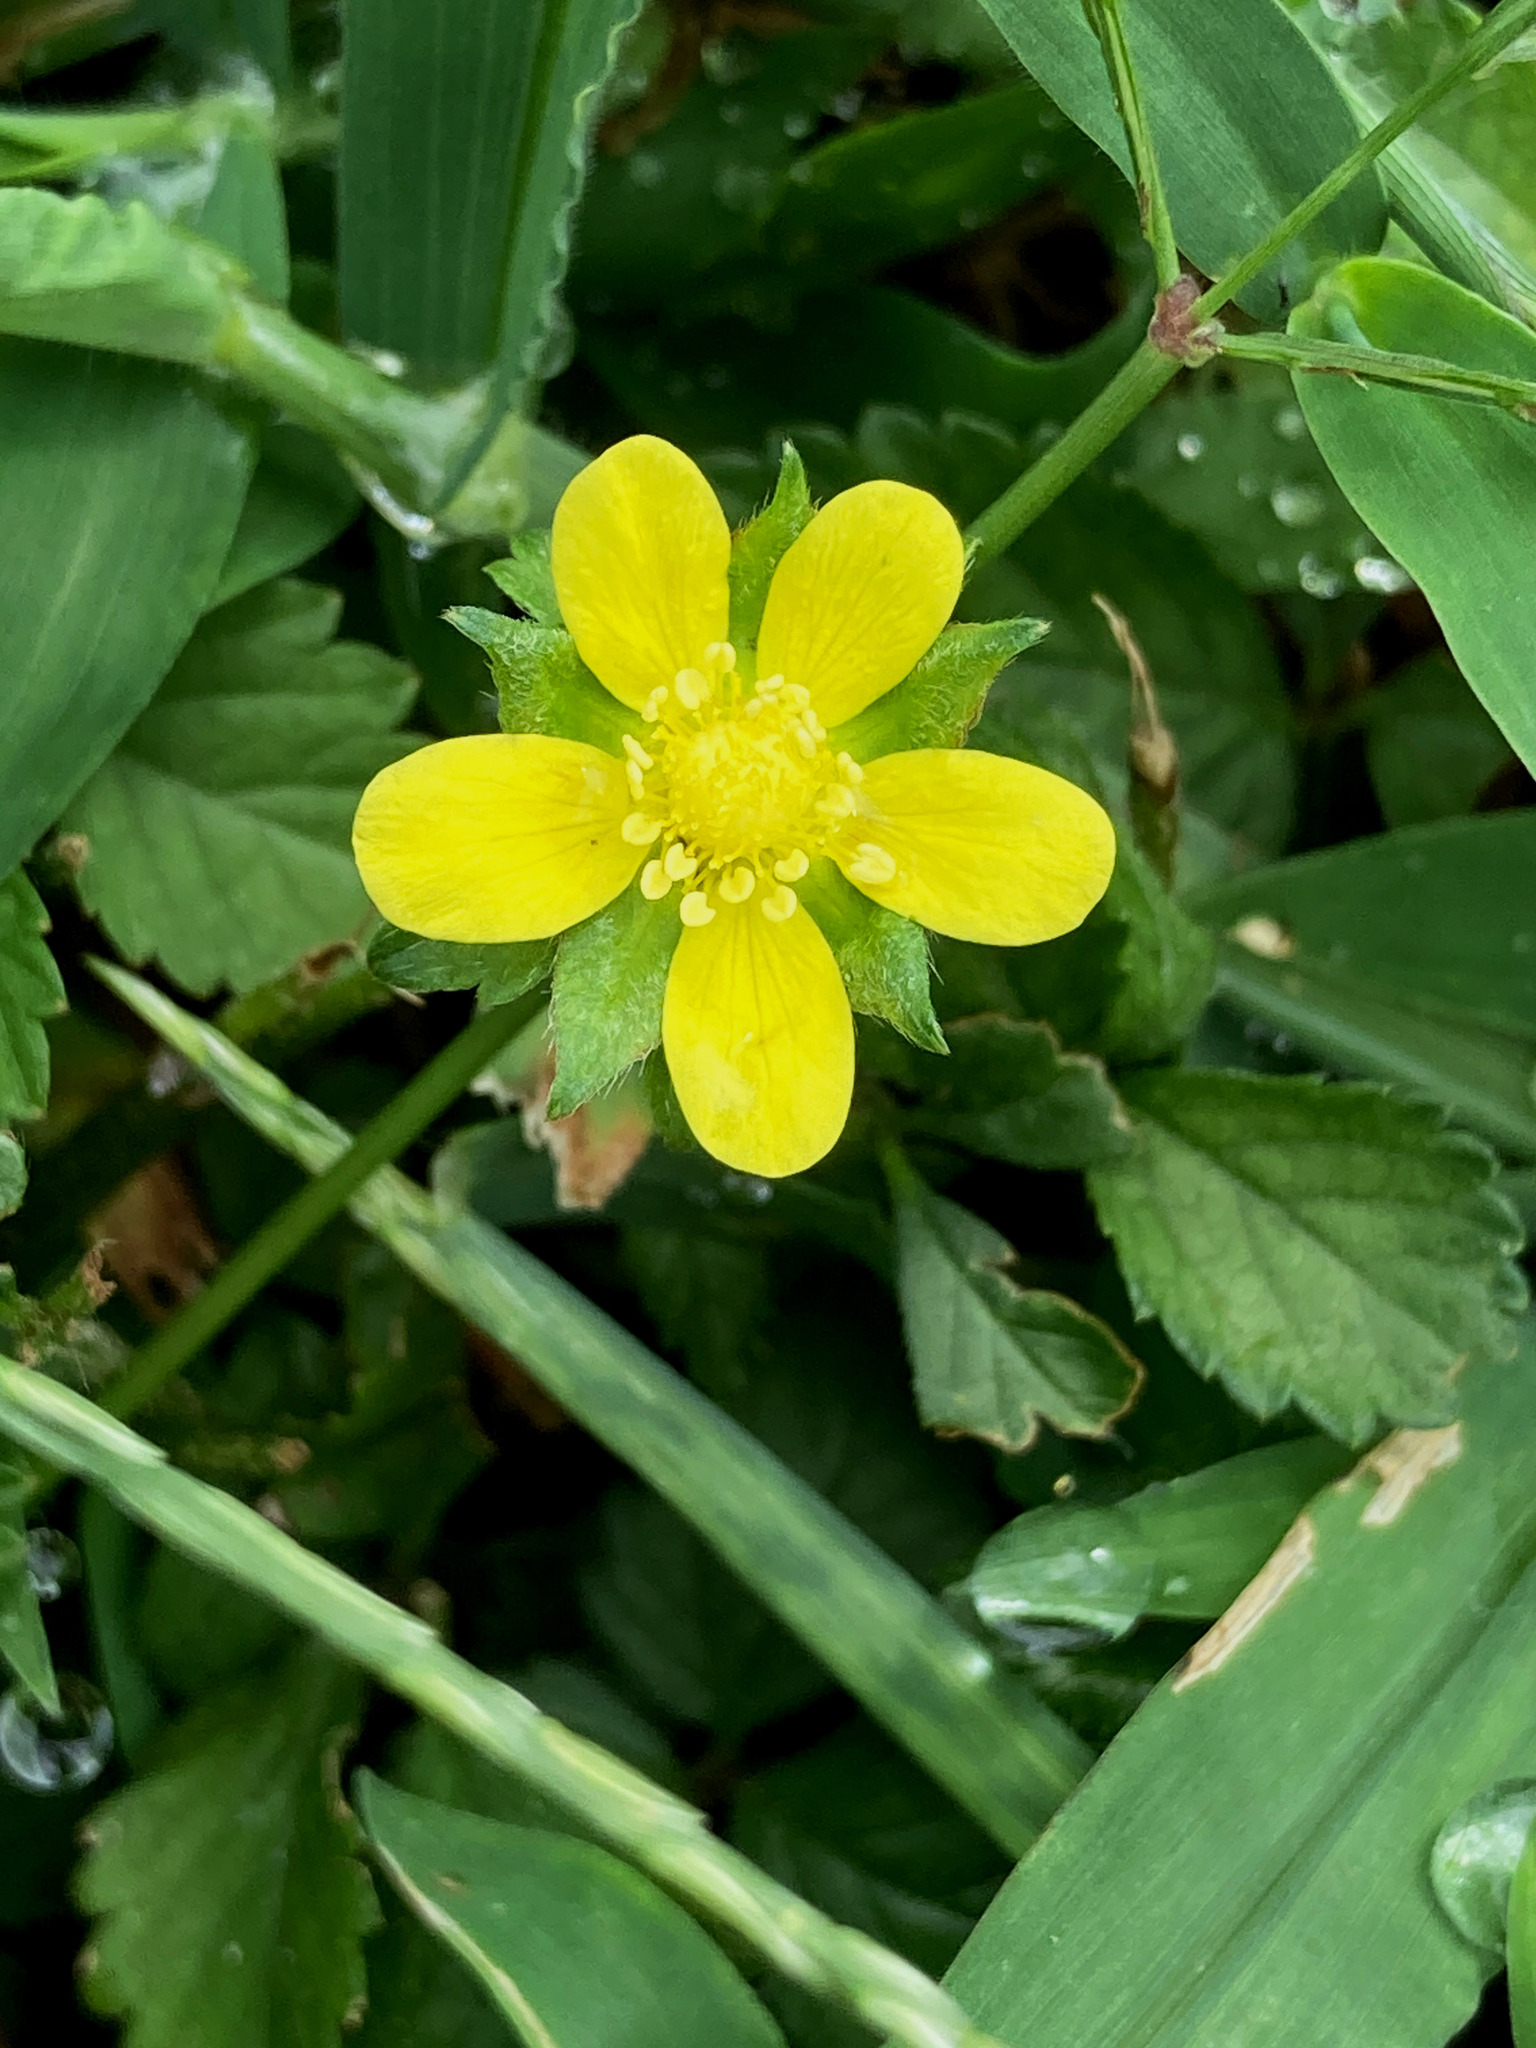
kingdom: Plantae
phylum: Tracheophyta
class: Magnoliopsida
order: Rosales
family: Rosaceae
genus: Potentilla
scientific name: Potentilla indica
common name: Yellow-flowered strawberry
